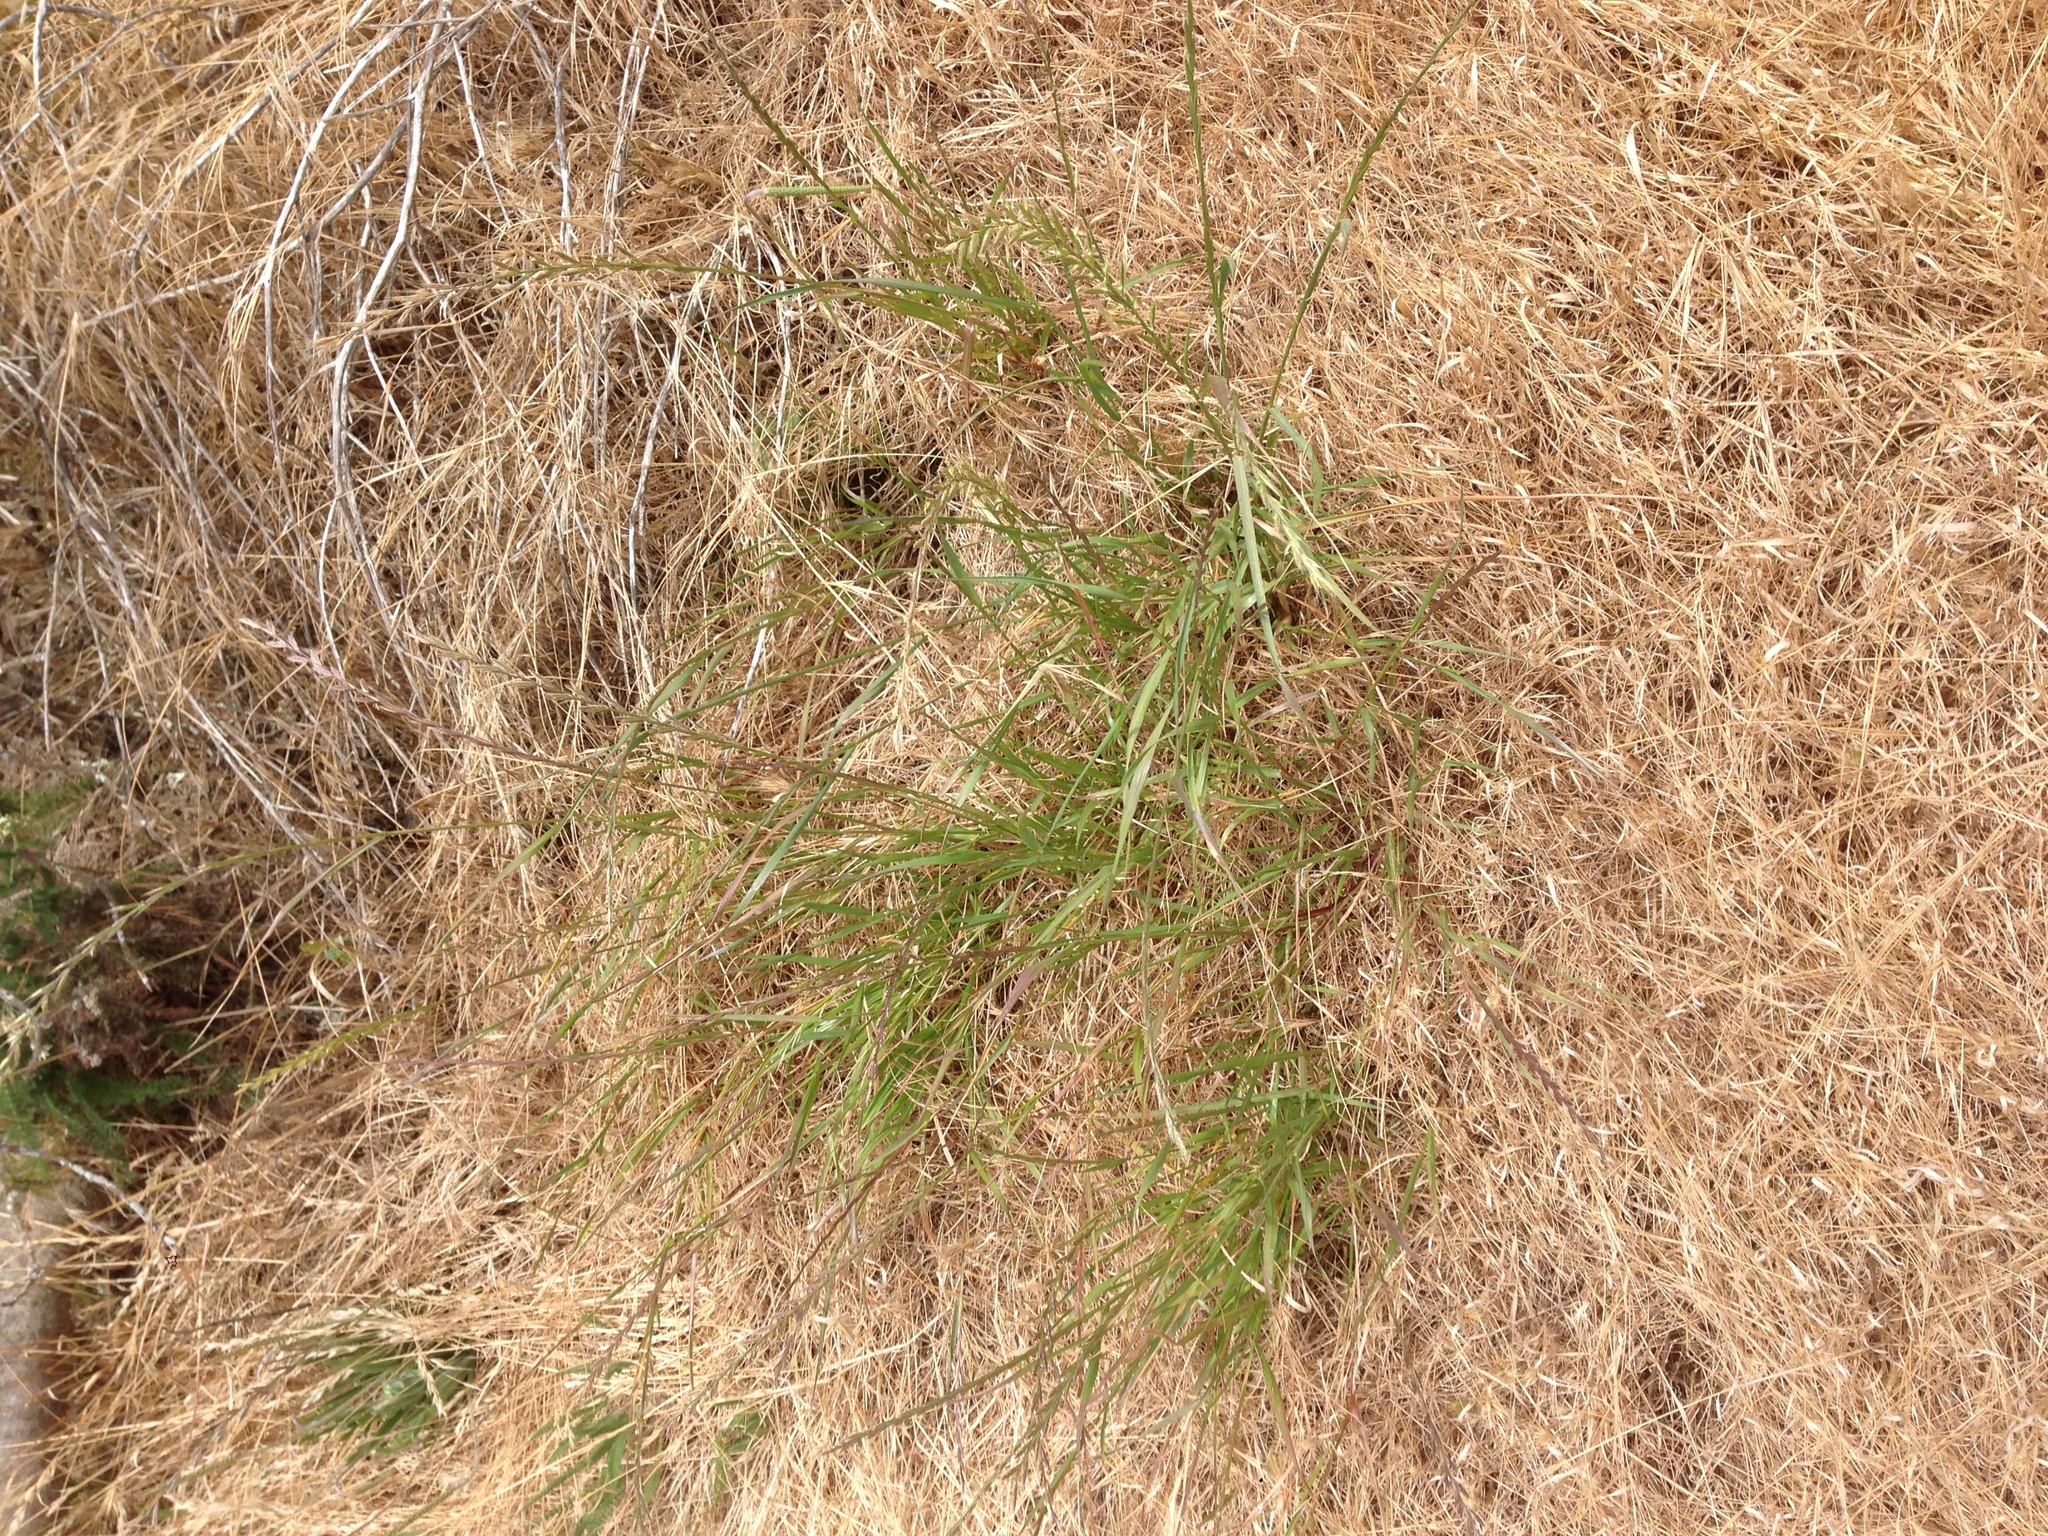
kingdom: Plantae
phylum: Tracheophyta
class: Liliopsida
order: Poales
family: Poaceae
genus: Lolium
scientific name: Lolium perenne
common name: Perennial ryegrass
